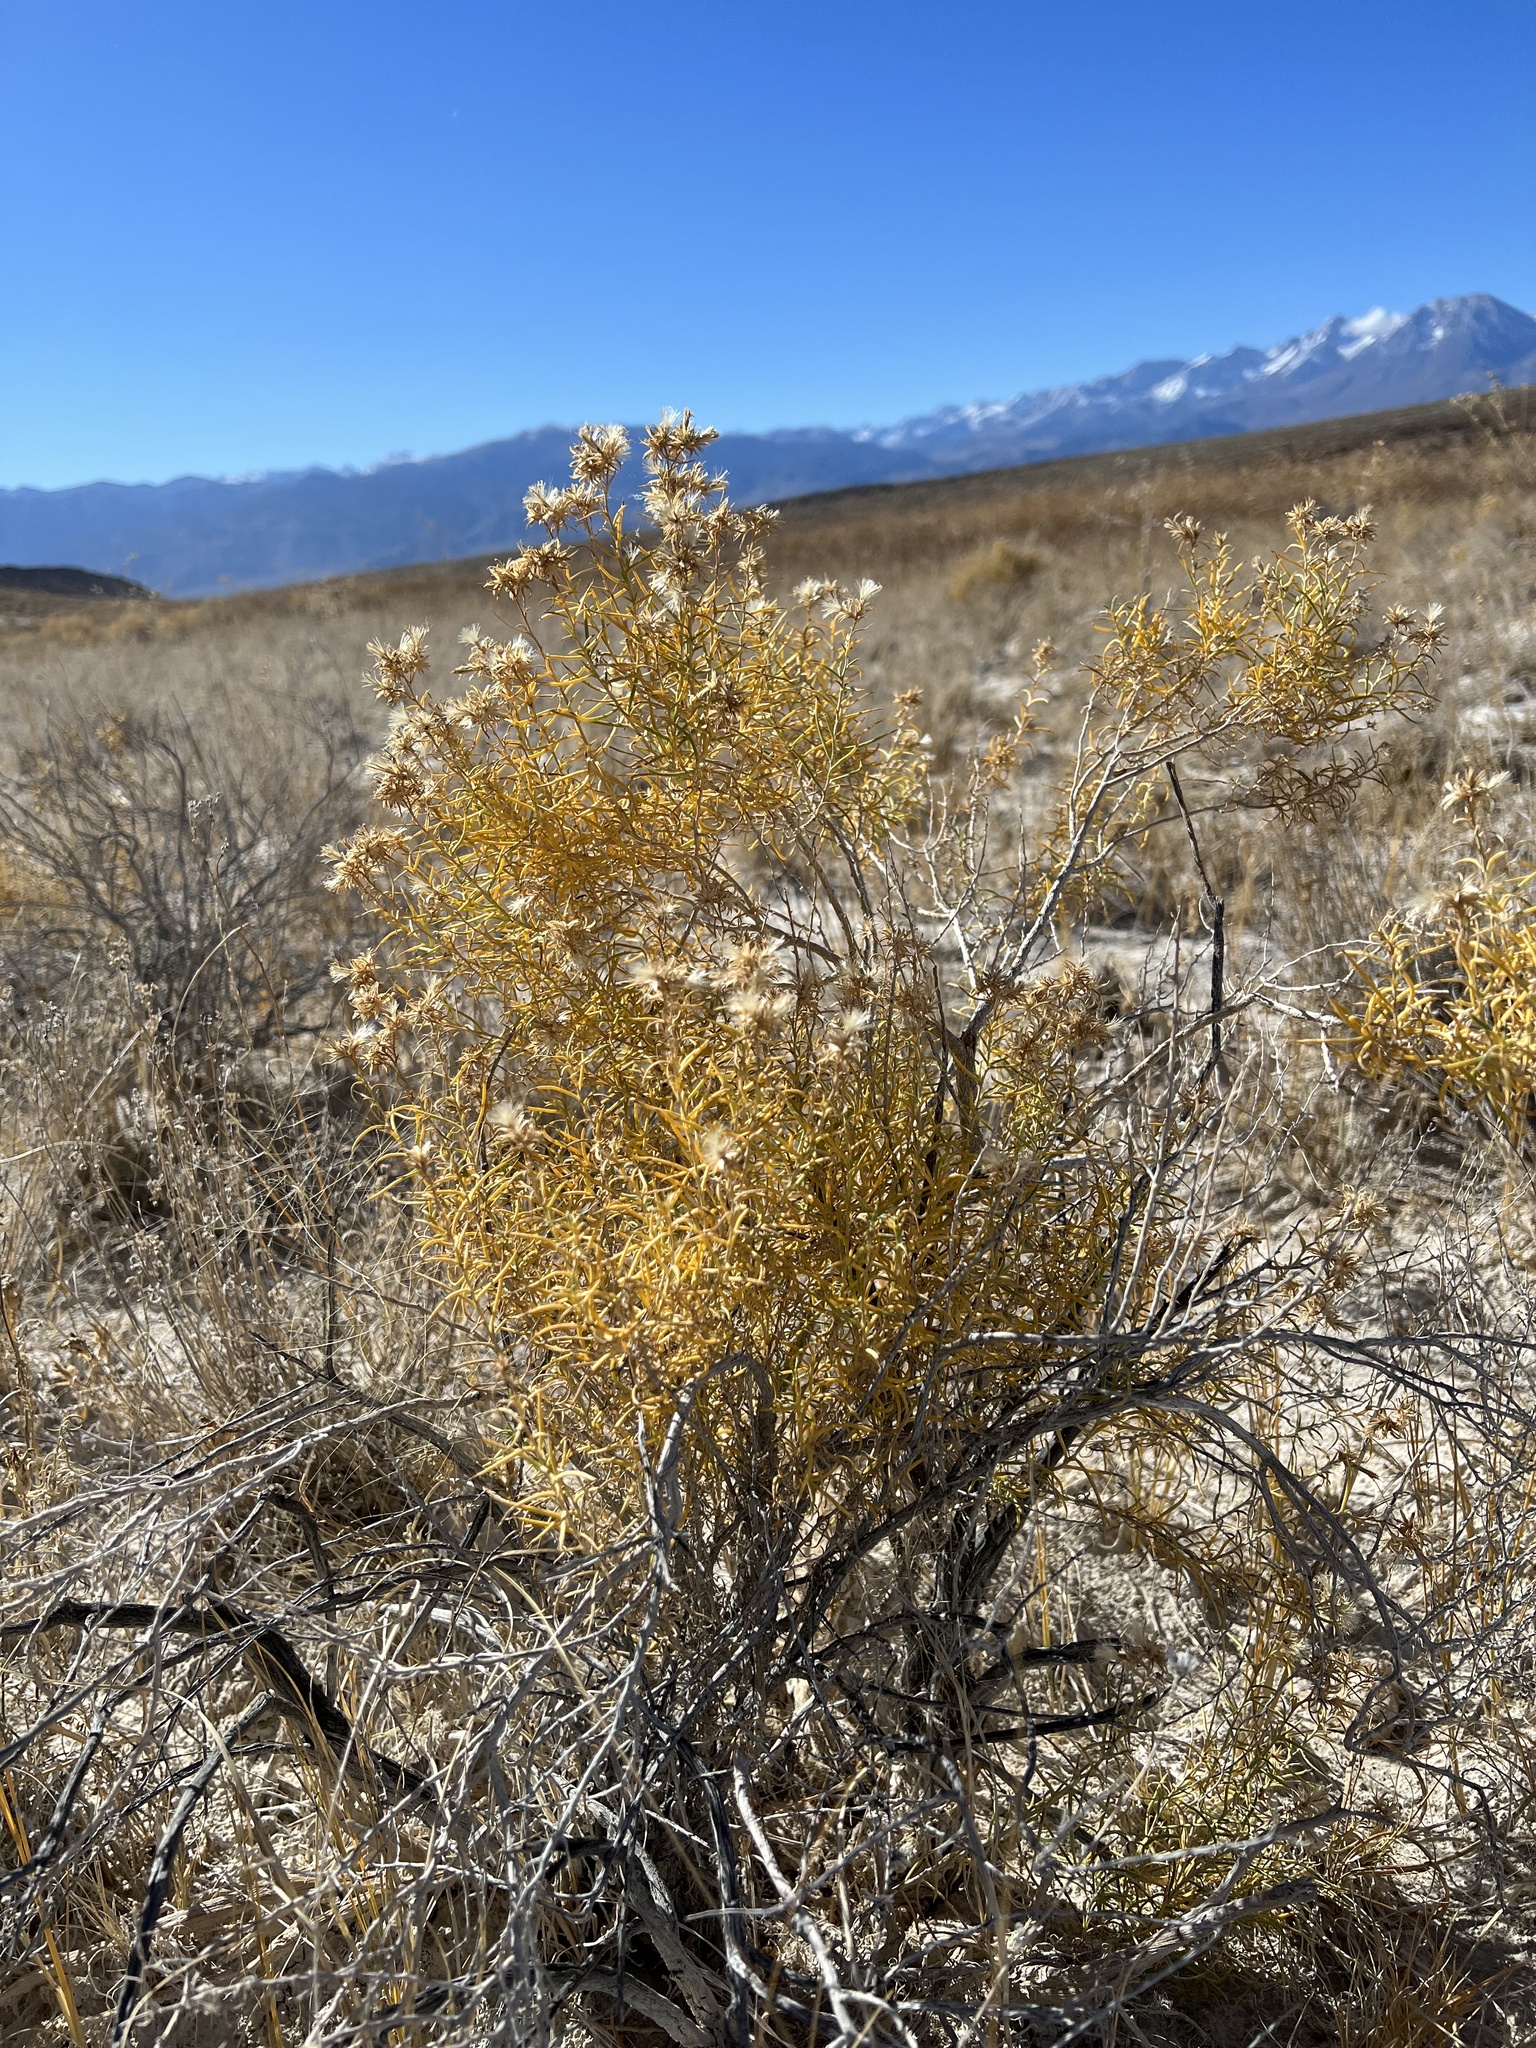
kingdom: Plantae
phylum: Tracheophyta
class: Magnoliopsida
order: Asterales
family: Asteraceae
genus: Ericameria
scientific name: Ericameria albida
